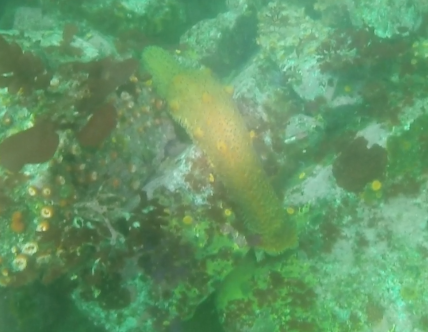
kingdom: Animalia
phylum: Echinodermata
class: Holothuroidea
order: Synallactida
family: Stichopodidae
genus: Apostichopus
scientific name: Apostichopus parvimensis
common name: Warty sea cucumber
